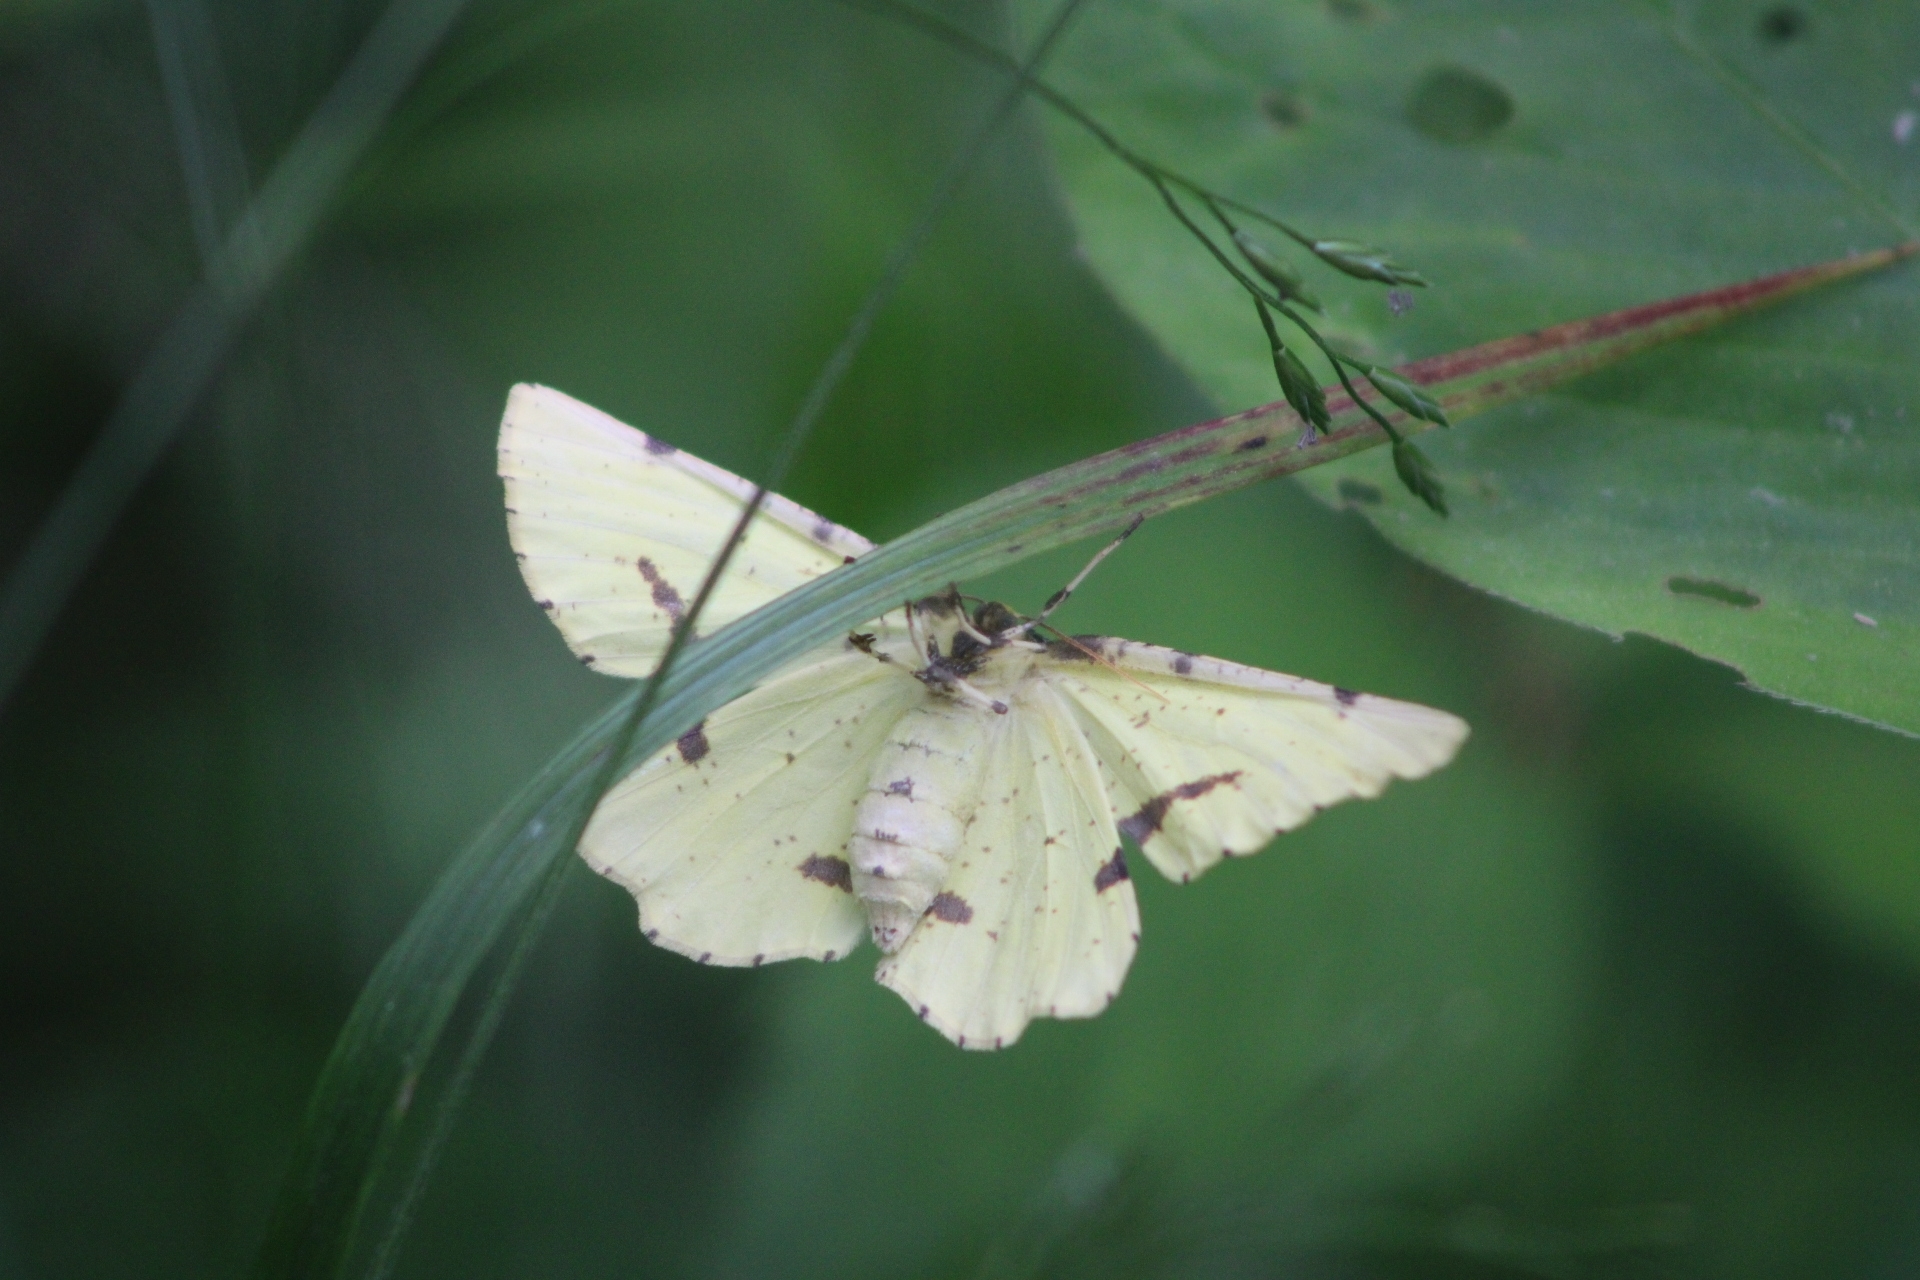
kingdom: Animalia
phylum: Arthropoda
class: Insecta
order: Lepidoptera
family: Geometridae
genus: Xanthotype
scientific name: Xanthotype
